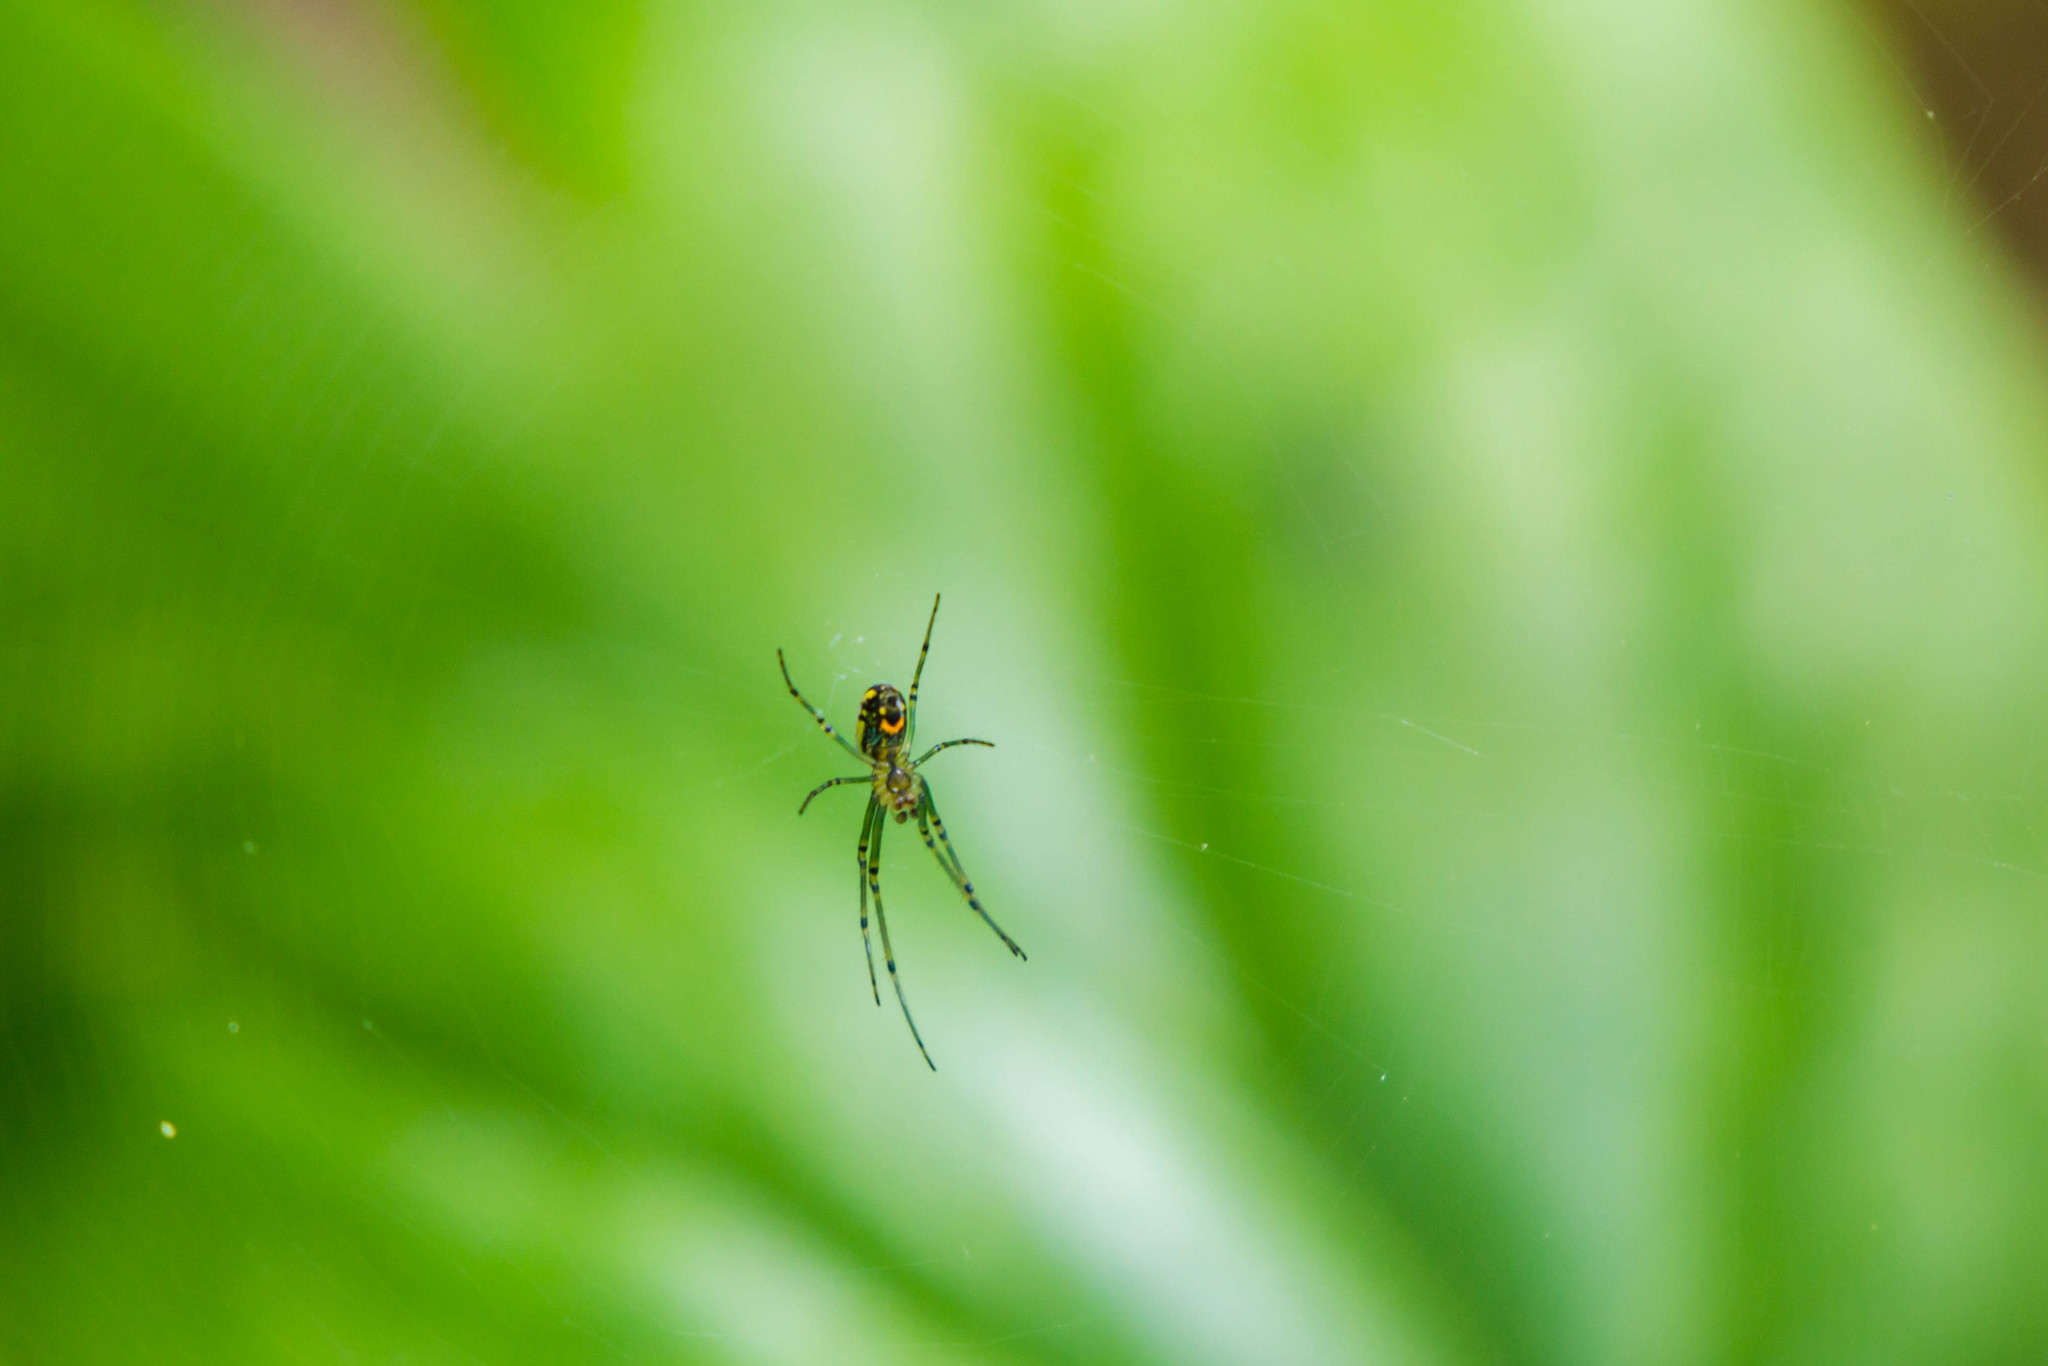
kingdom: Animalia
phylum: Arthropoda
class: Arachnida
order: Araneae
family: Tetragnathidae
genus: Leucauge
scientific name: Leucauge venusta
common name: Longjawed orb weavers
